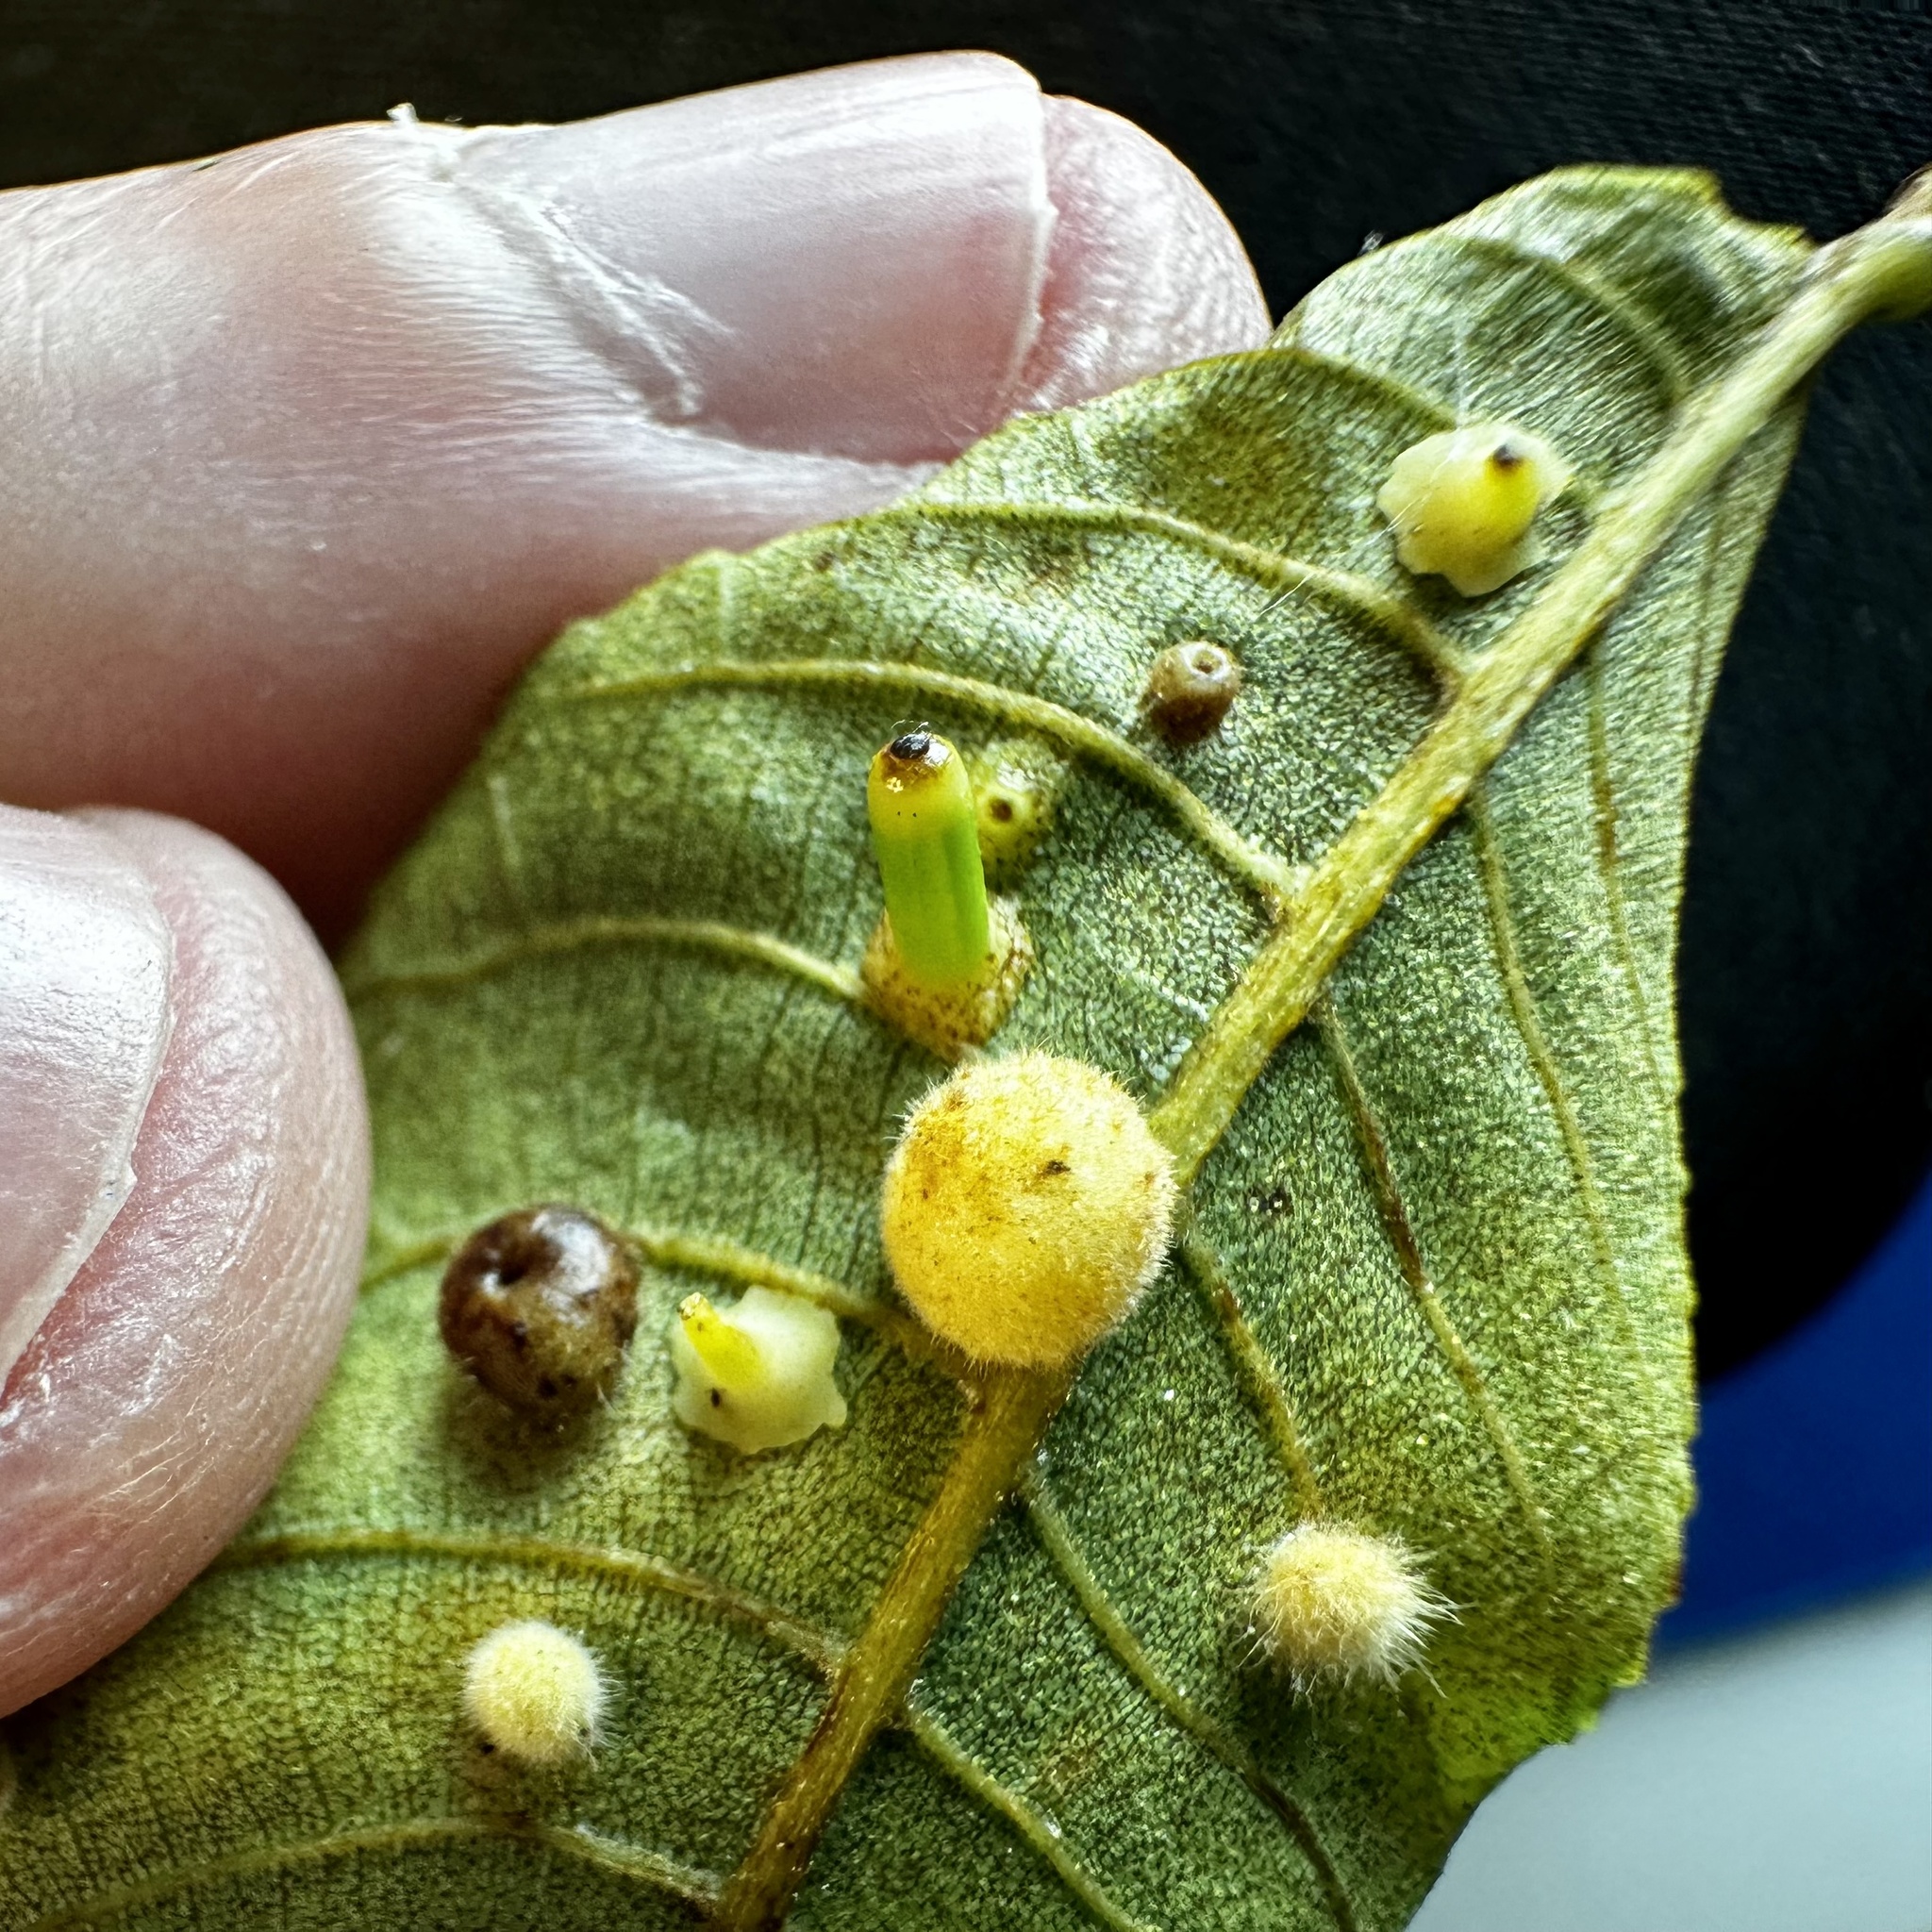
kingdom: Animalia
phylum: Arthropoda
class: Insecta
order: Diptera
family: Cecidomyiidae
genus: Caryomyia
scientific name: Caryomyia tubicola
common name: Hickory bullet gall midge
